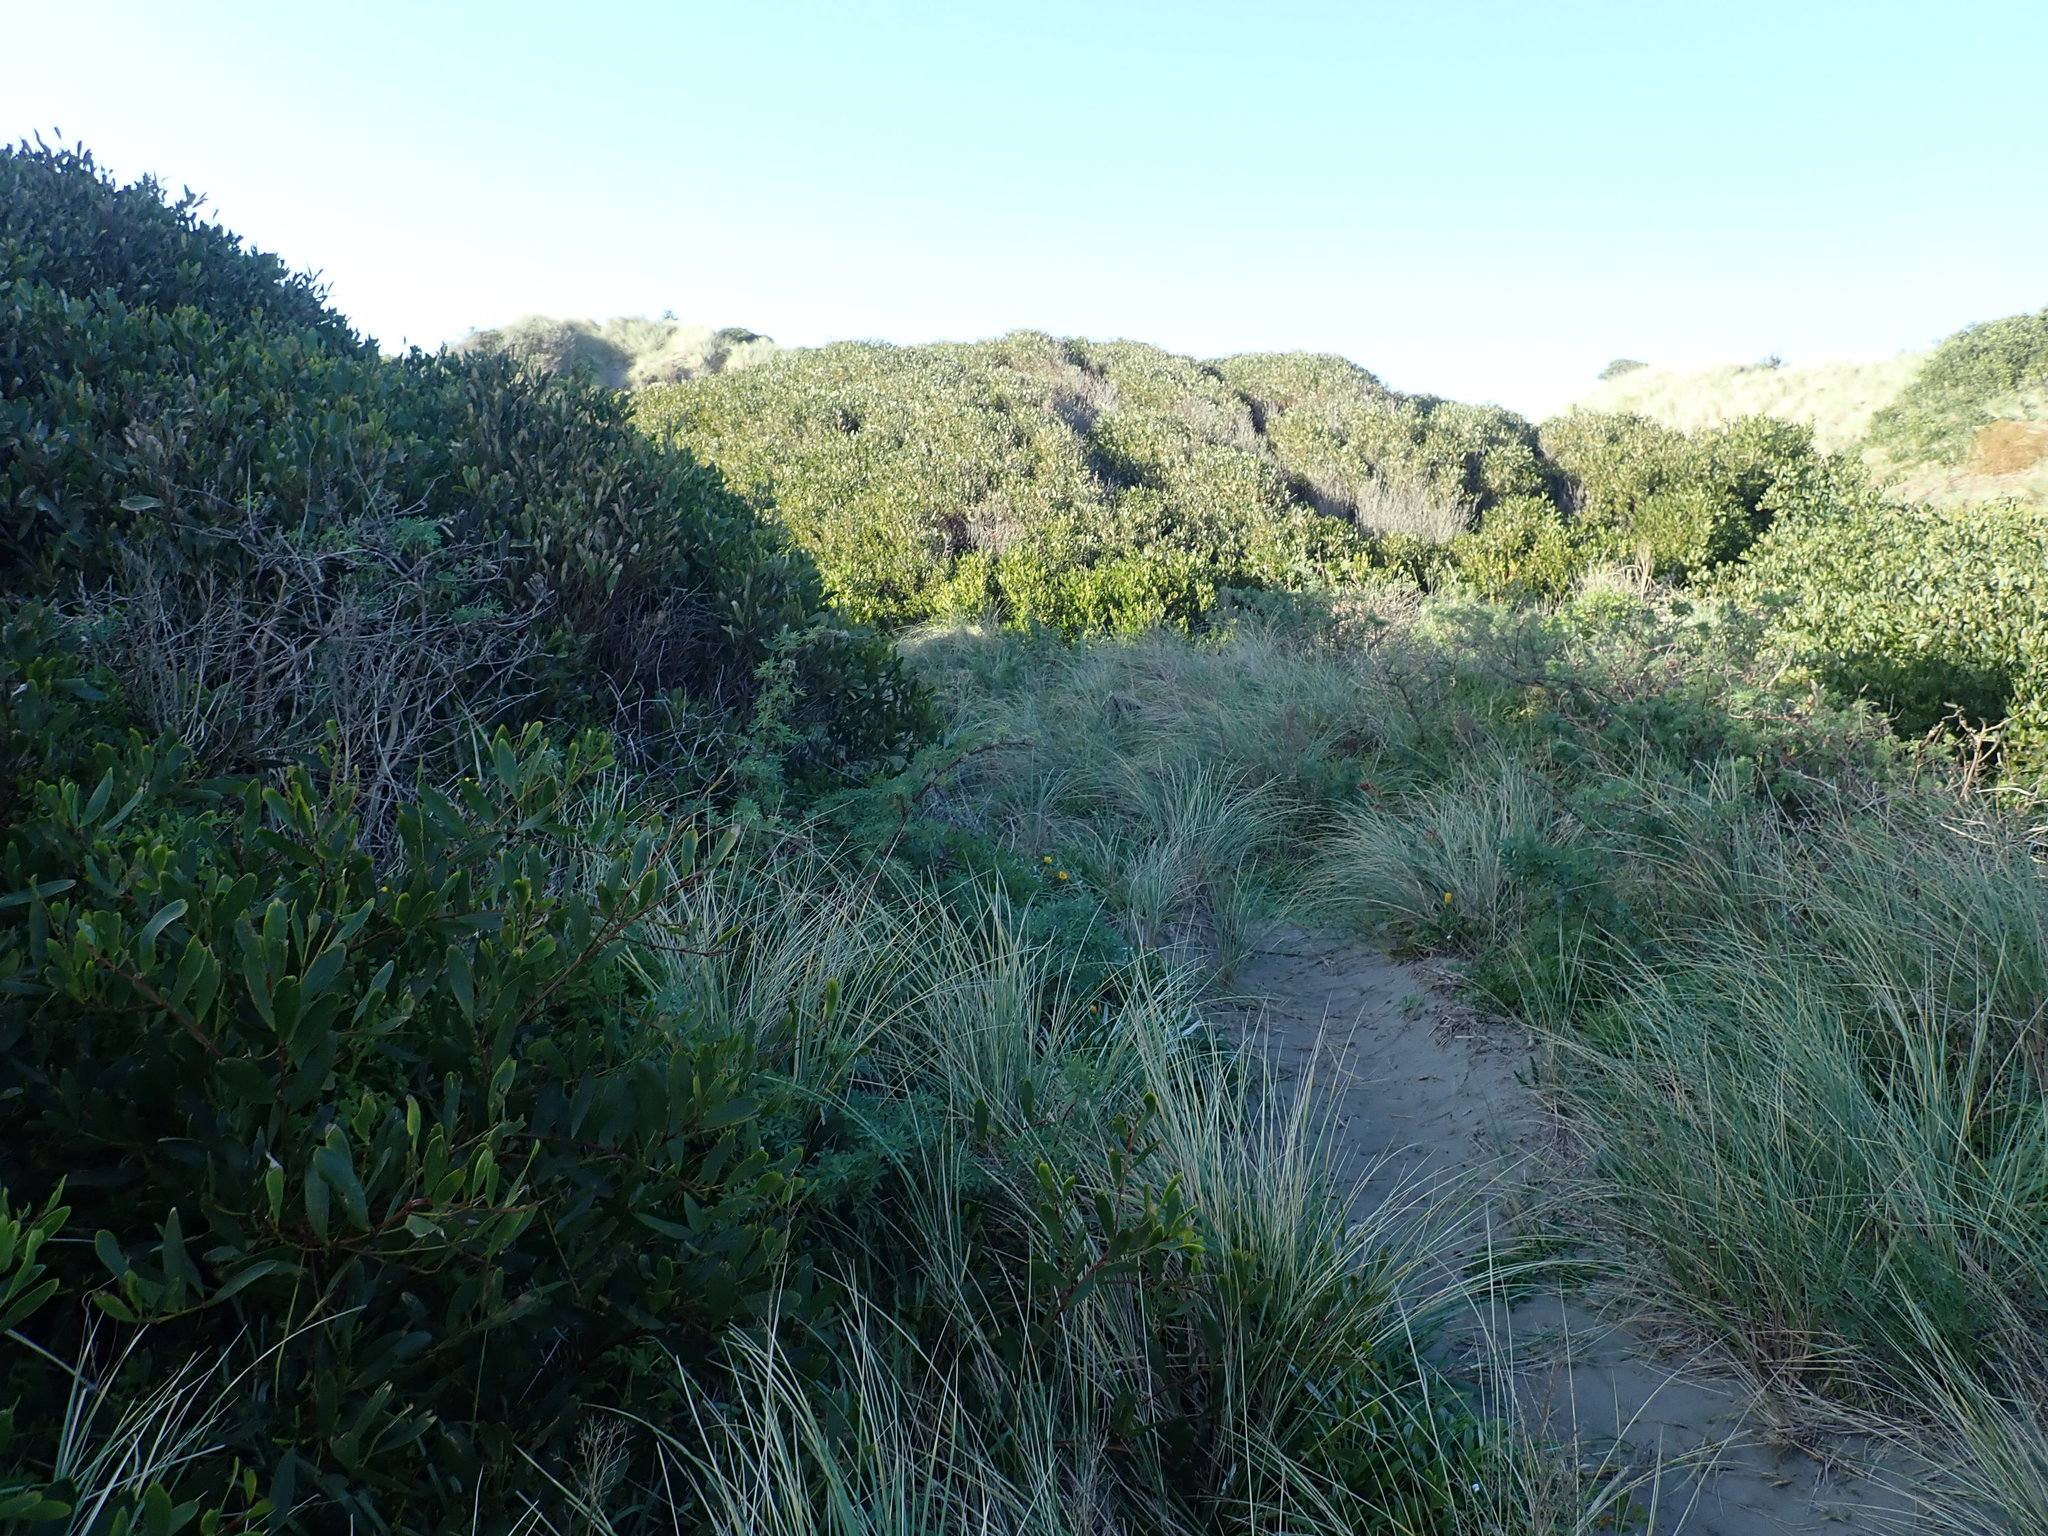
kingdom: Plantae
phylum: Tracheophyta
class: Magnoliopsida
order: Fabales
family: Fabaceae
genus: Acacia
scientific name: Acacia longifolia
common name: Sydney golden wattle
